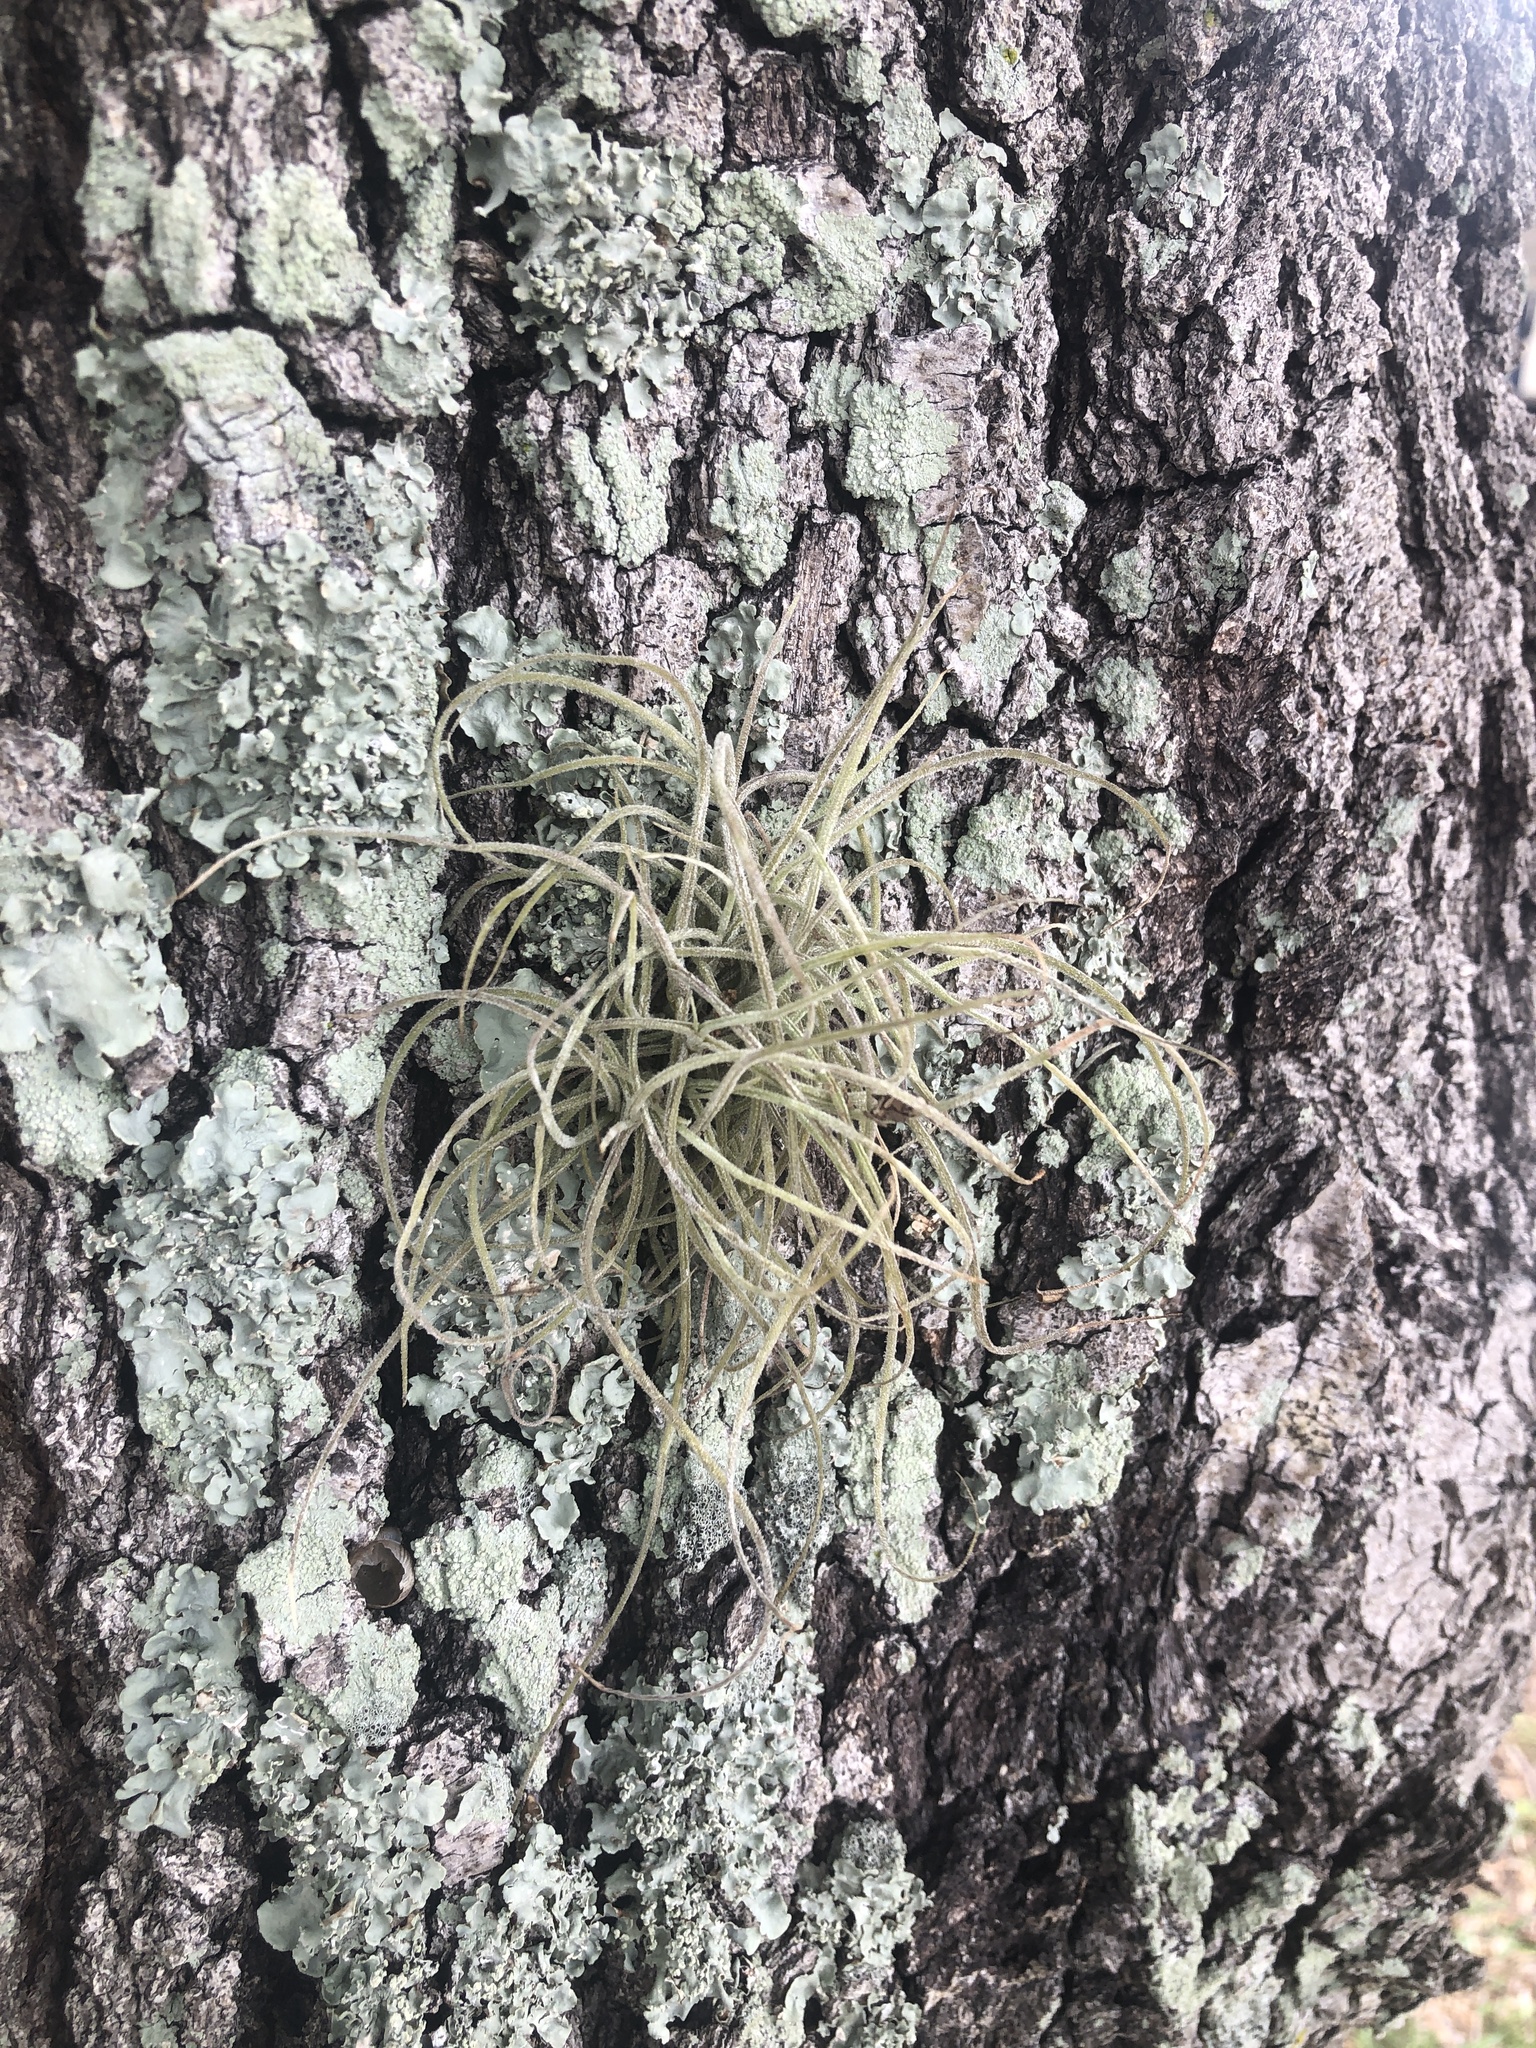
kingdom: Plantae
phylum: Tracheophyta
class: Liliopsida
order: Poales
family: Bromeliaceae
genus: Tillandsia
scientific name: Tillandsia recurvata
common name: Small ballmoss
